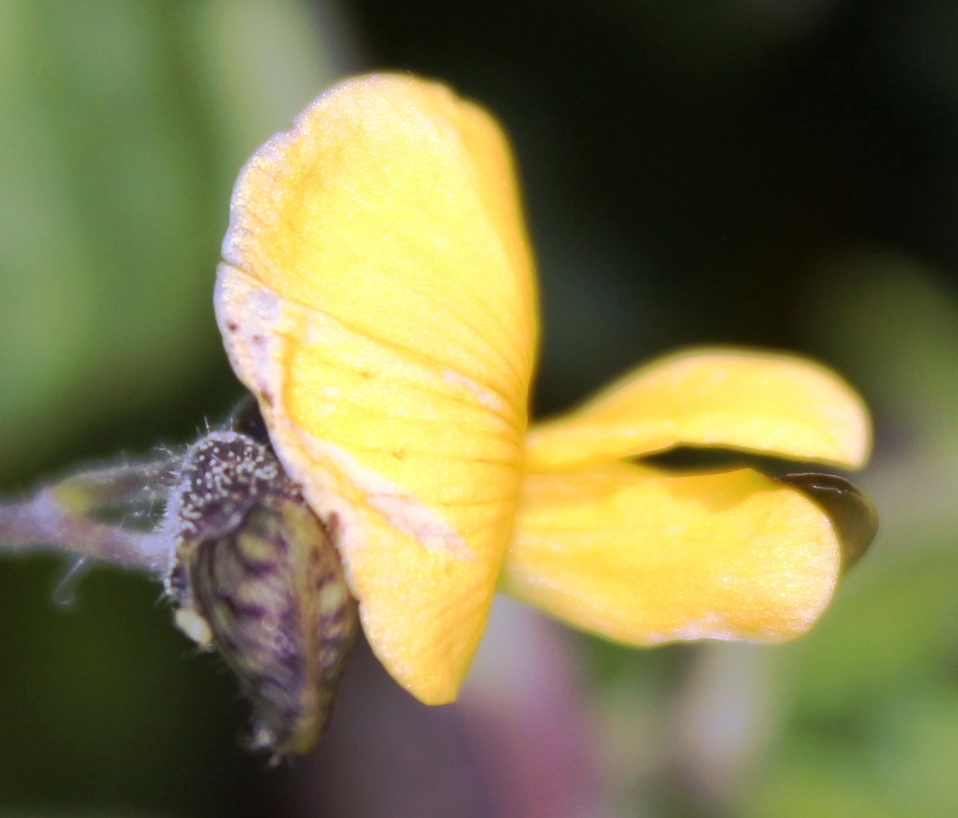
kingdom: Plantae
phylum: Tracheophyta
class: Magnoliopsida
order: Fabales
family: Fabaceae
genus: Rhynchosia
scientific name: Rhynchosia caribaea
